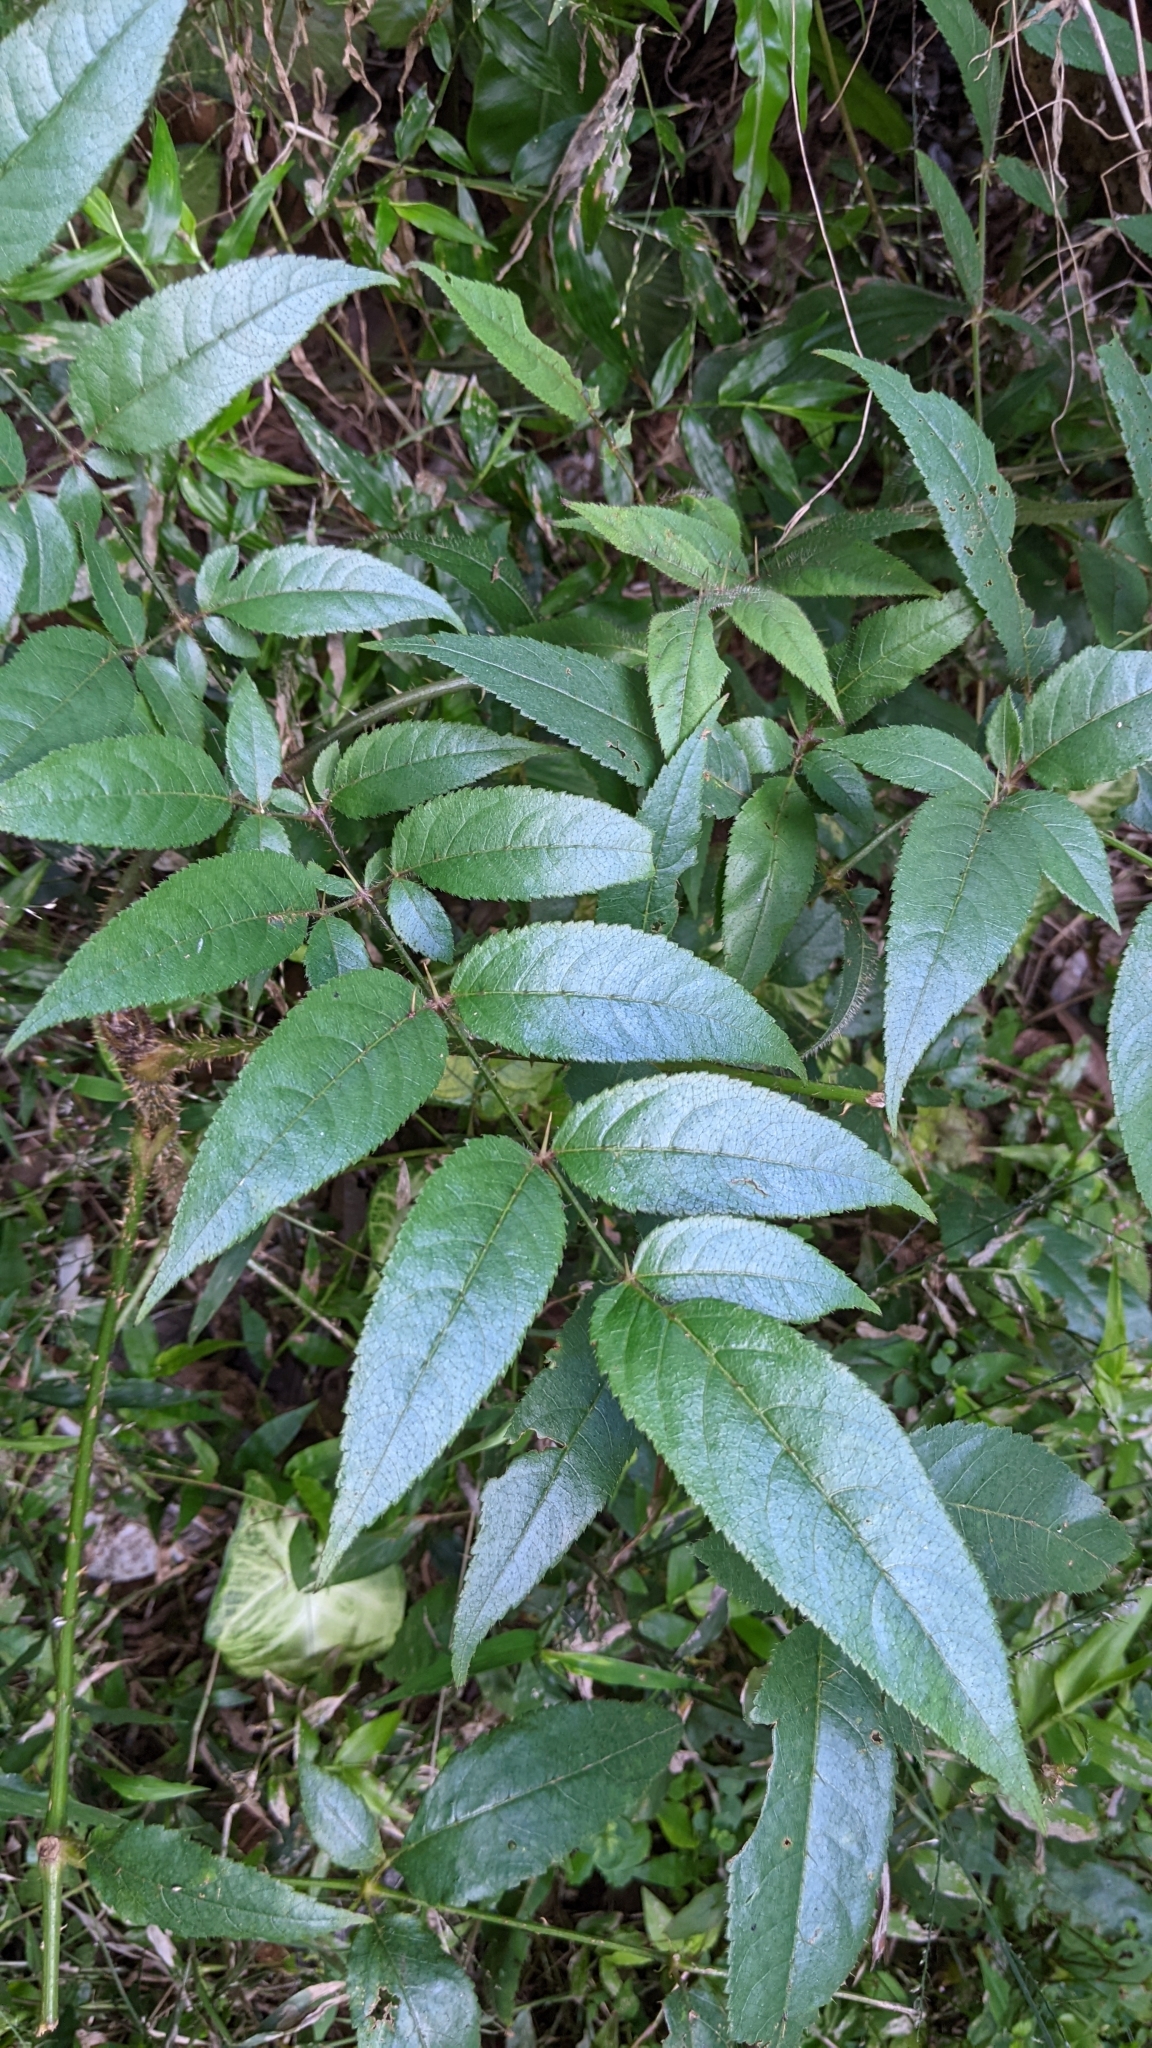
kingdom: Plantae
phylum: Tracheophyta
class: Magnoliopsida
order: Apiales
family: Araliaceae
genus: Aralia
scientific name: Aralia armata
